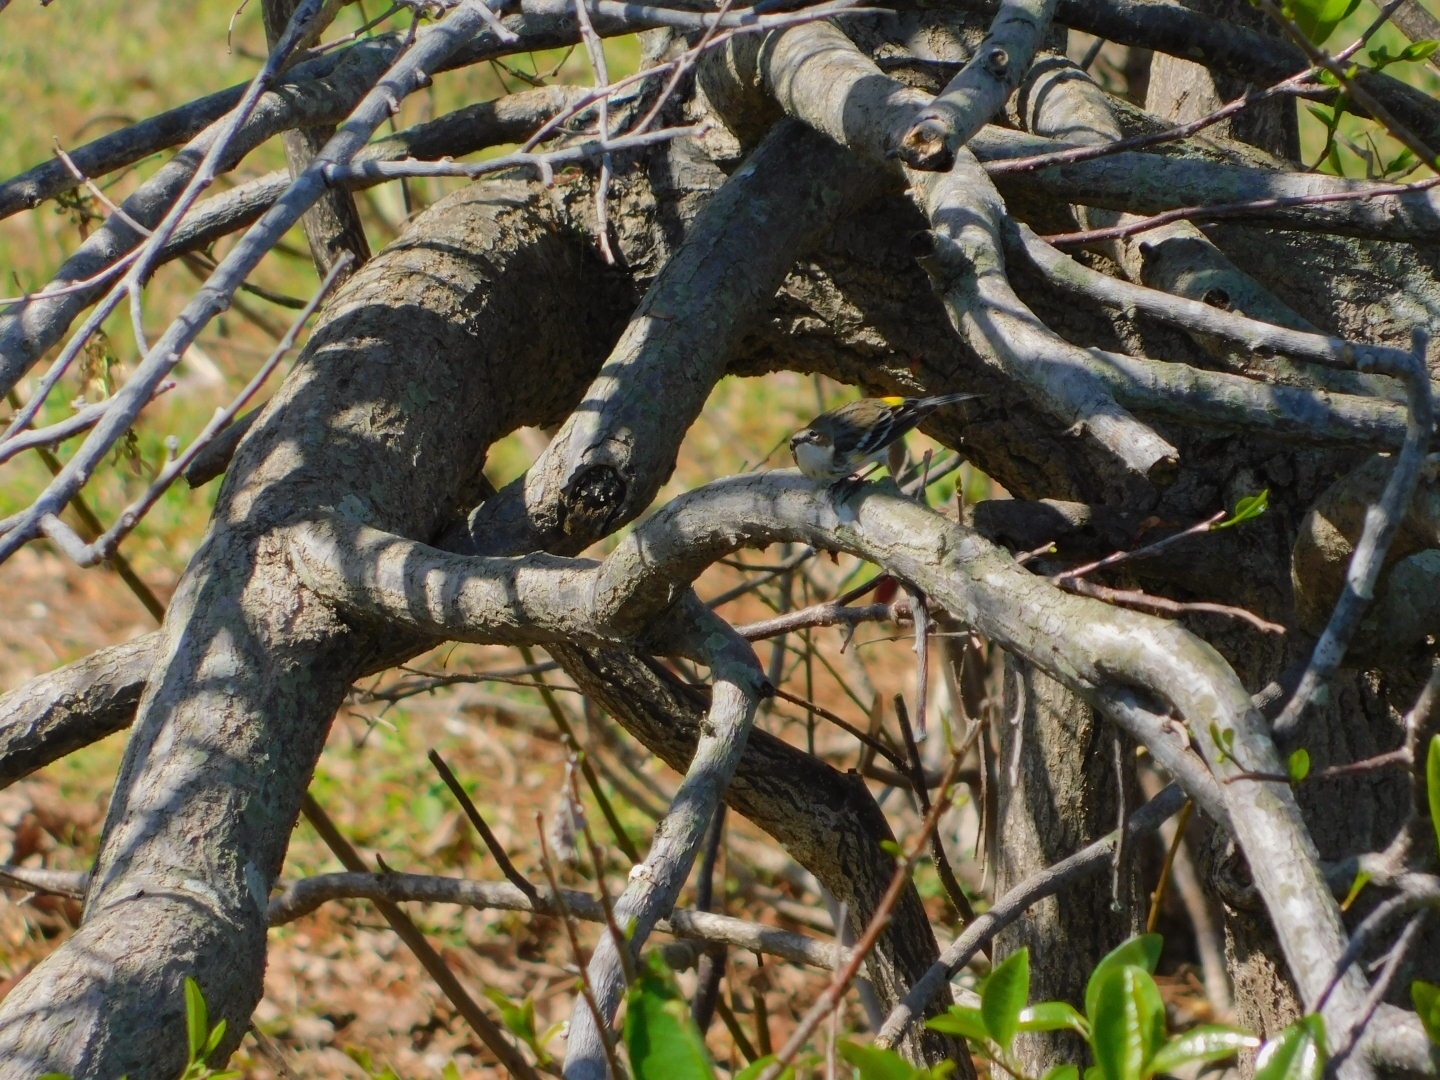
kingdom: Animalia
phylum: Chordata
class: Aves
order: Passeriformes
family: Parulidae
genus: Setophaga
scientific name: Setophaga coronata
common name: Myrtle warbler
